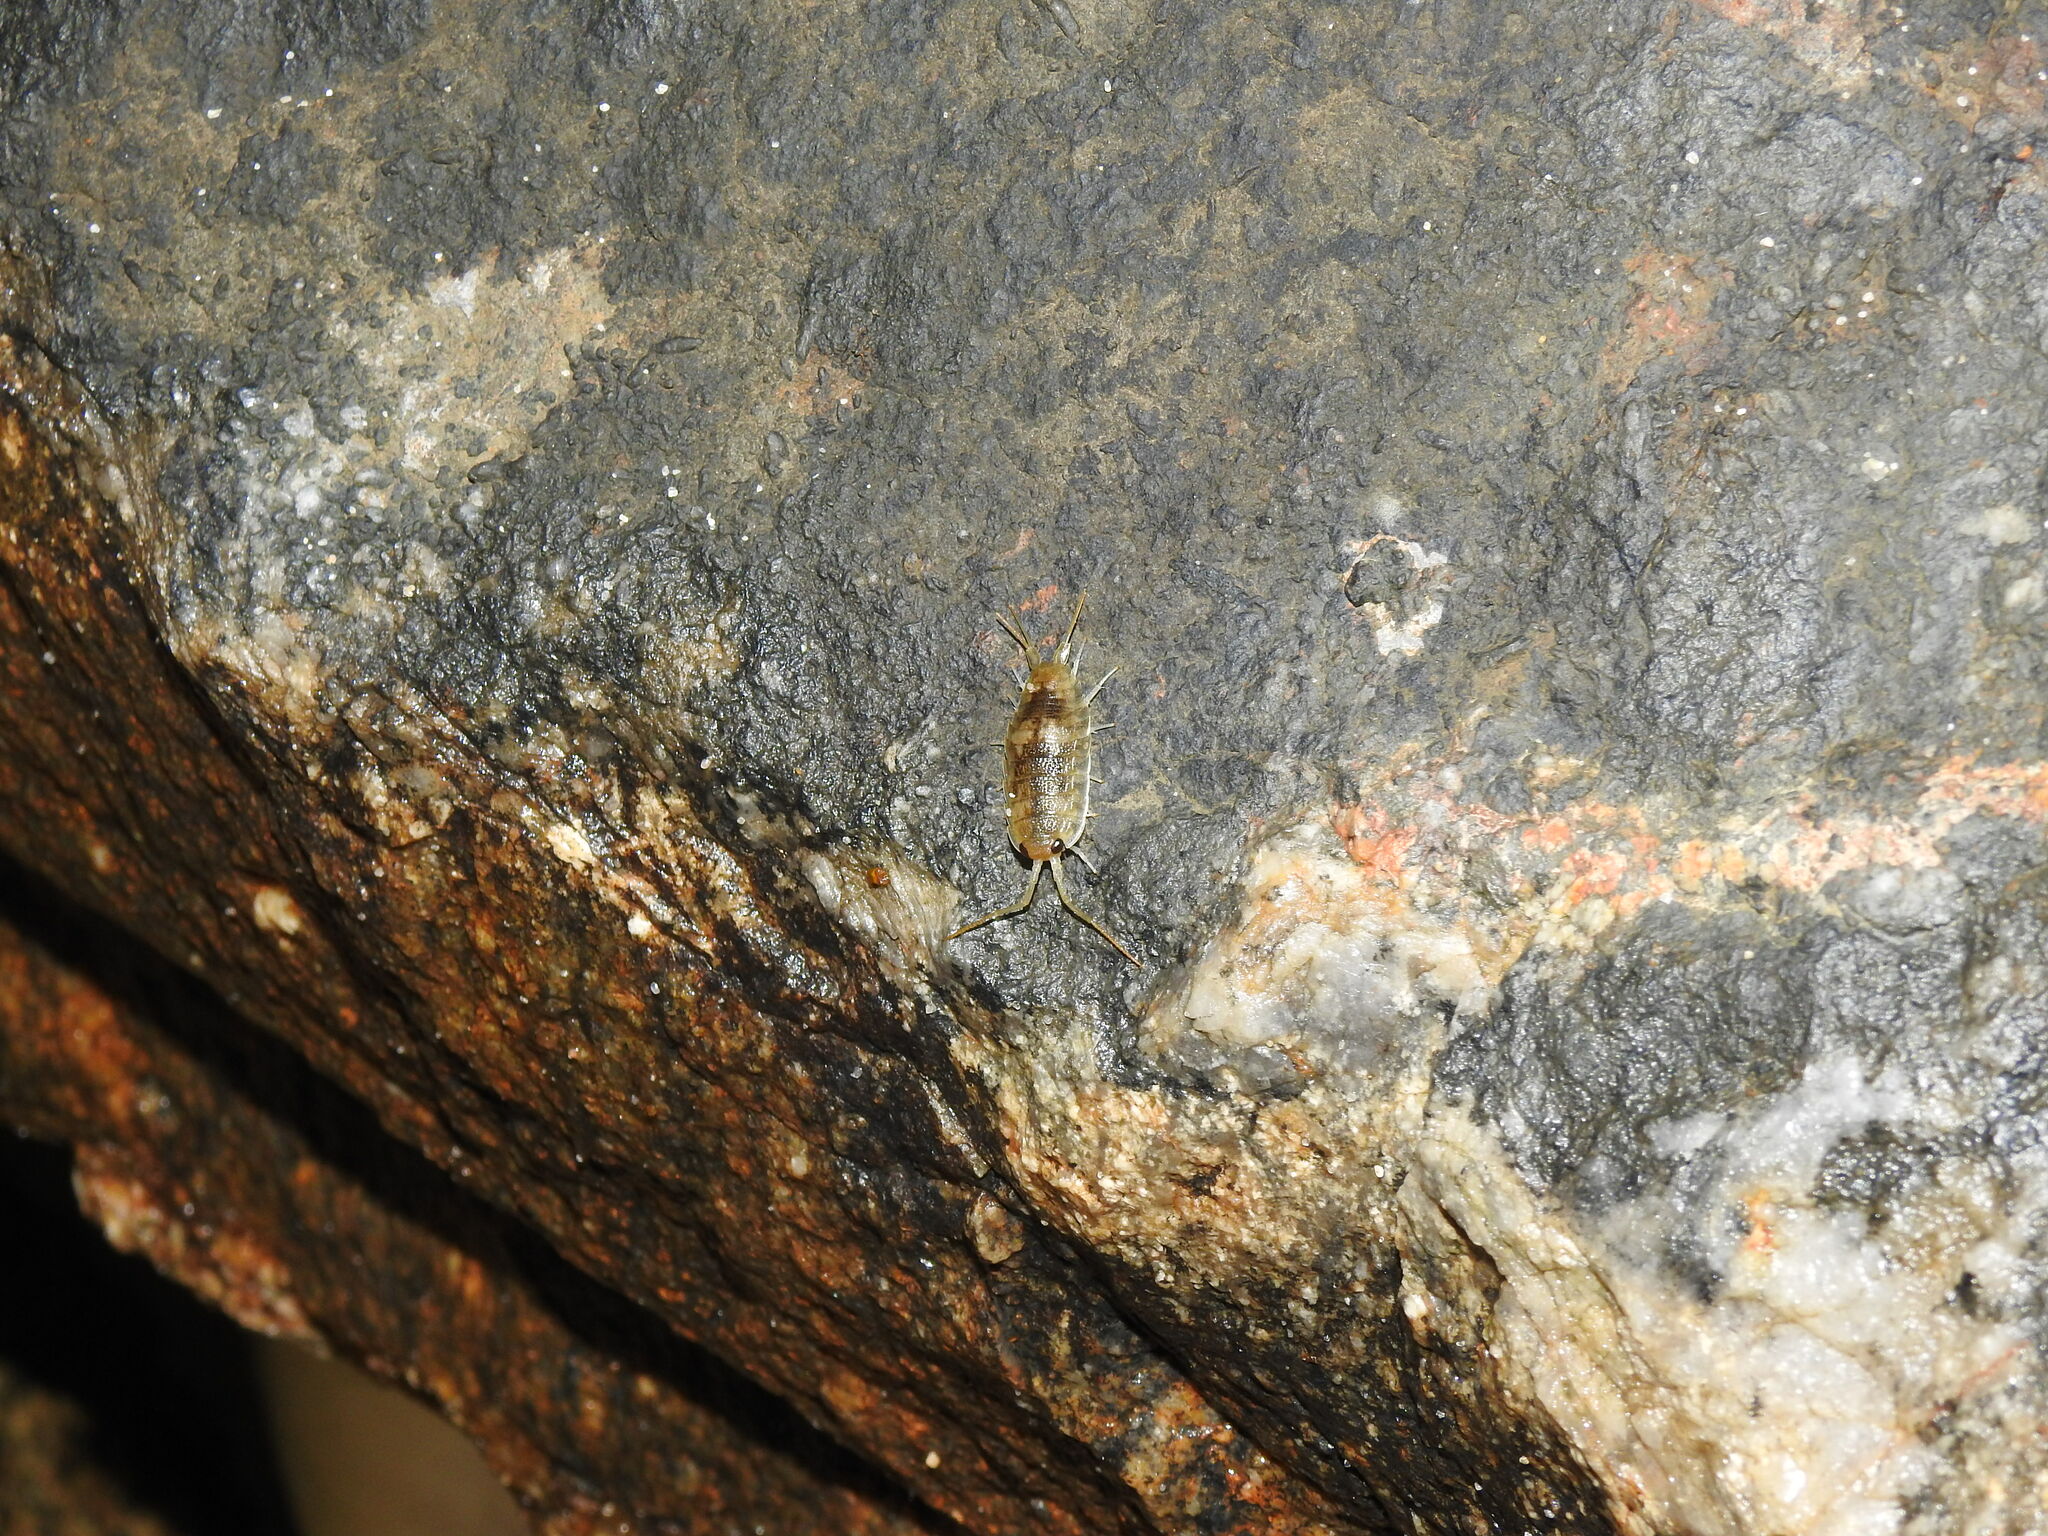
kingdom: Animalia
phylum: Arthropoda
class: Malacostraca
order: Isopoda
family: Ligiidae
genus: Ligia
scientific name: Ligia oceanica
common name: Sea slater
